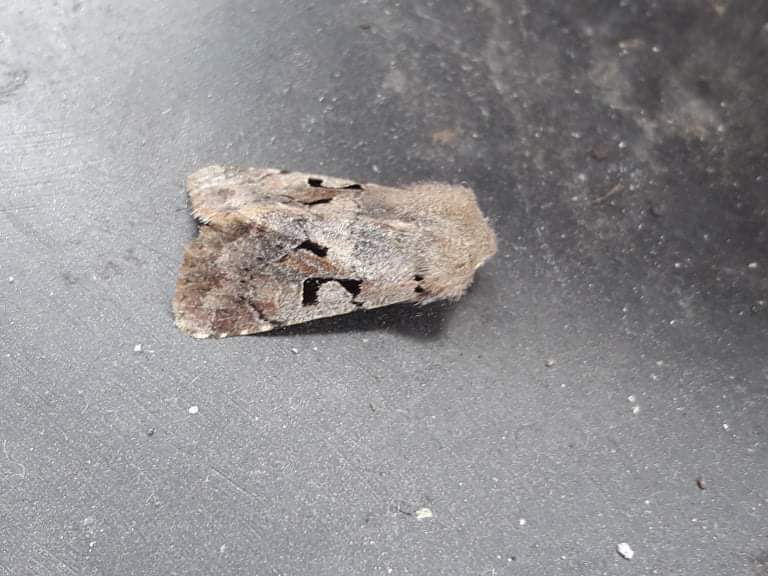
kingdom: Animalia
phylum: Arthropoda
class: Insecta
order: Lepidoptera
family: Noctuidae
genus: Orthosia
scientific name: Orthosia gothica
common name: Hebrew character
